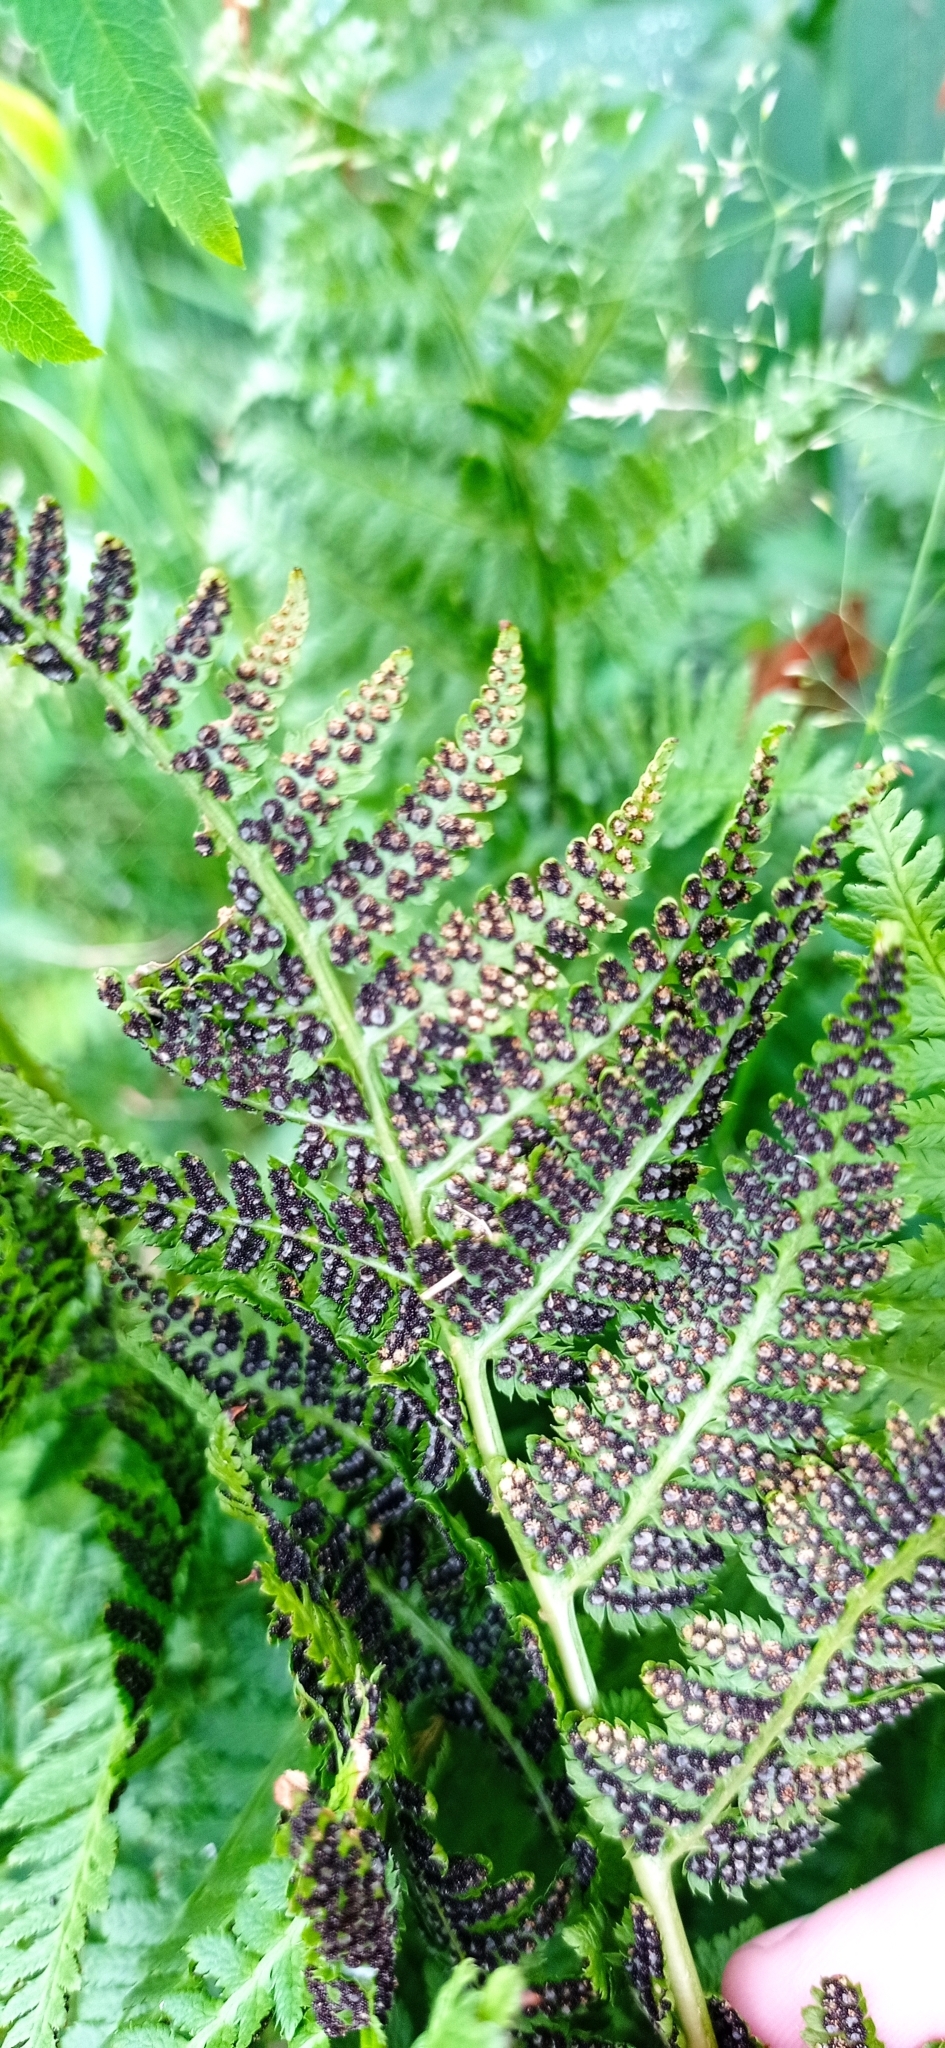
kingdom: Plantae
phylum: Tracheophyta
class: Polypodiopsida
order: Polypodiales
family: Dryopteridaceae
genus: Dryopteris
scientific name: Dryopteris carthusiana
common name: Narrow buckler-fern
